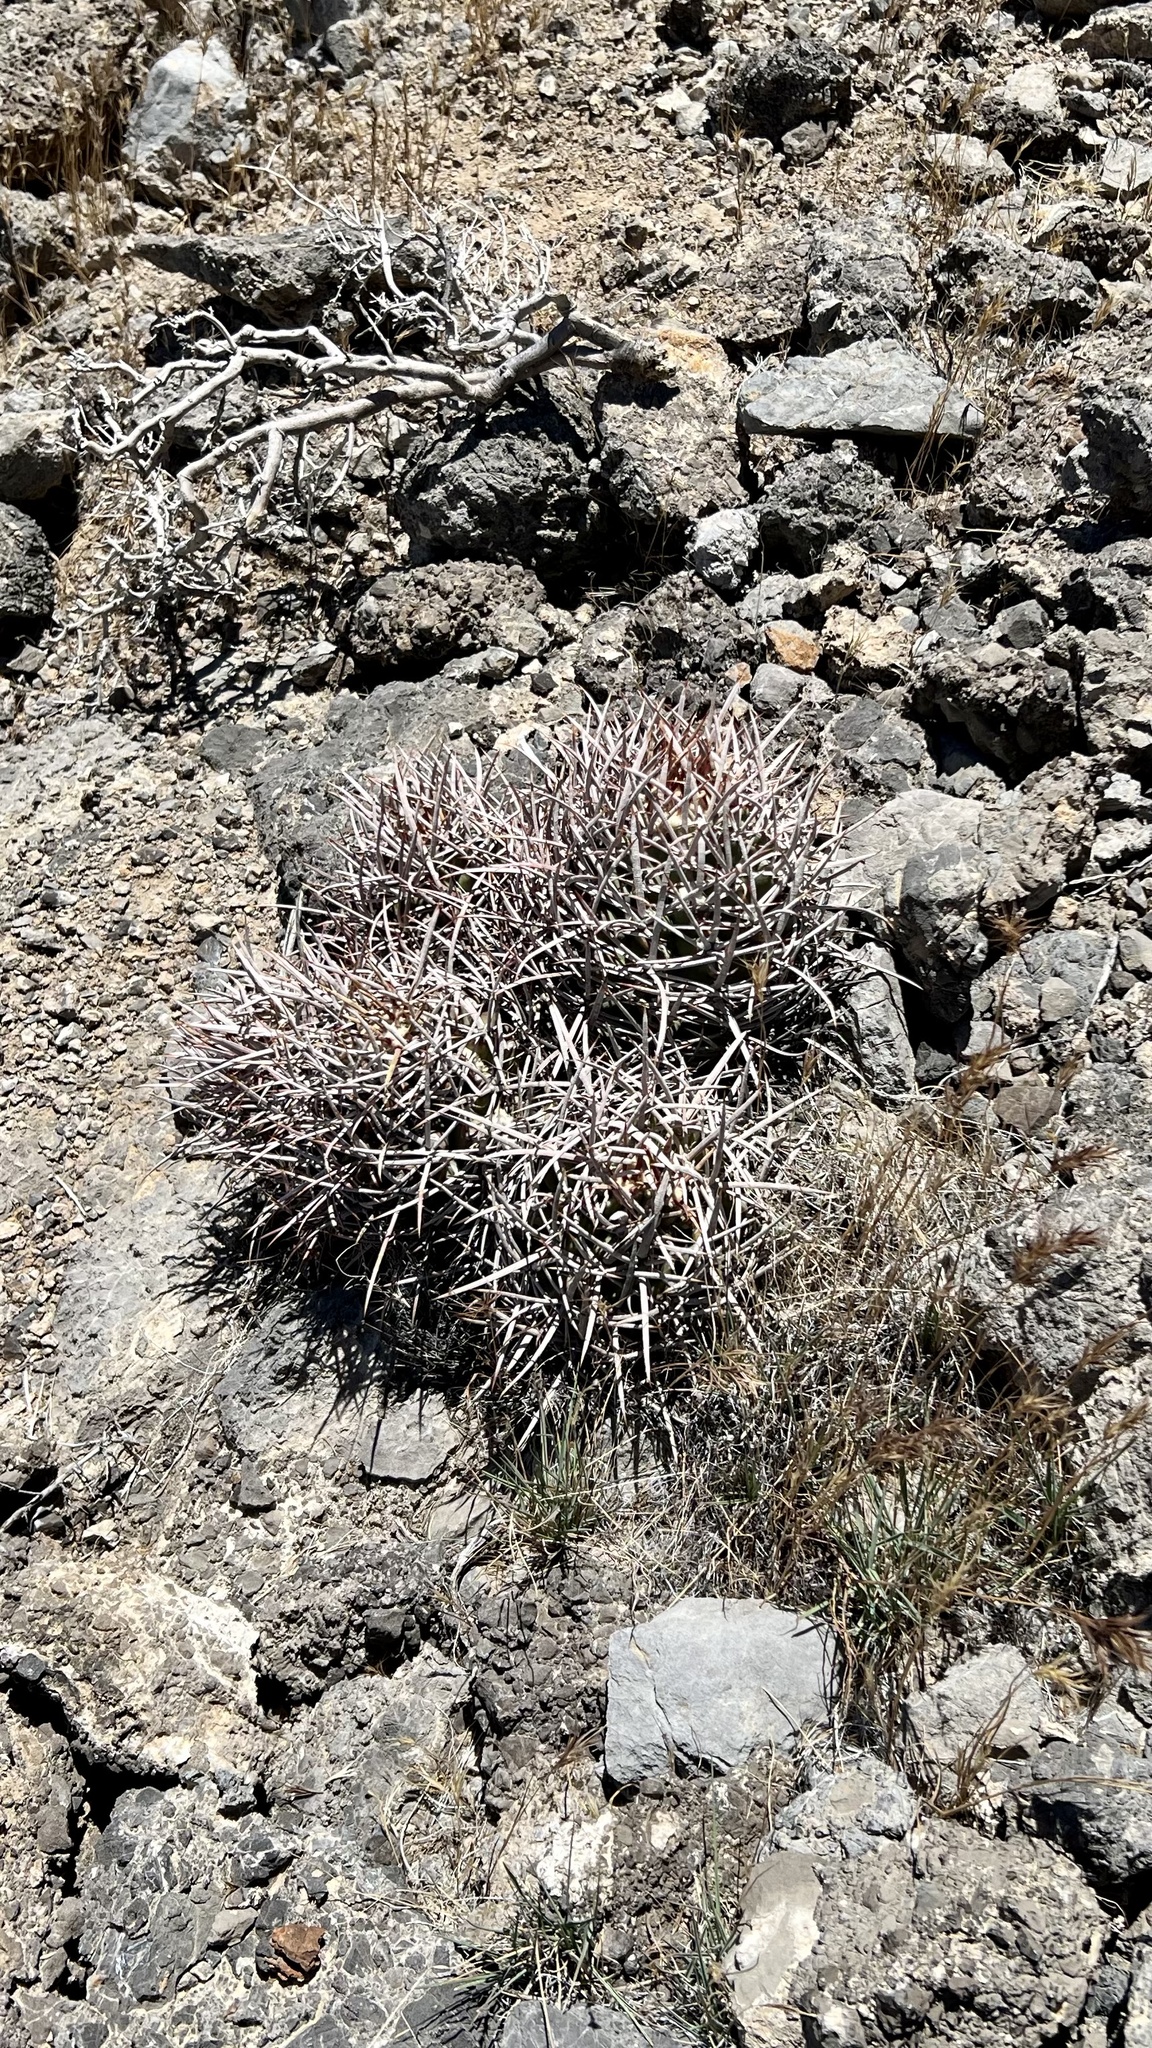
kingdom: Plantae
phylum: Tracheophyta
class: Magnoliopsida
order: Caryophyllales
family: Cactaceae
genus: Echinocactus
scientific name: Echinocactus polycephalus
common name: Cottontop cactus
